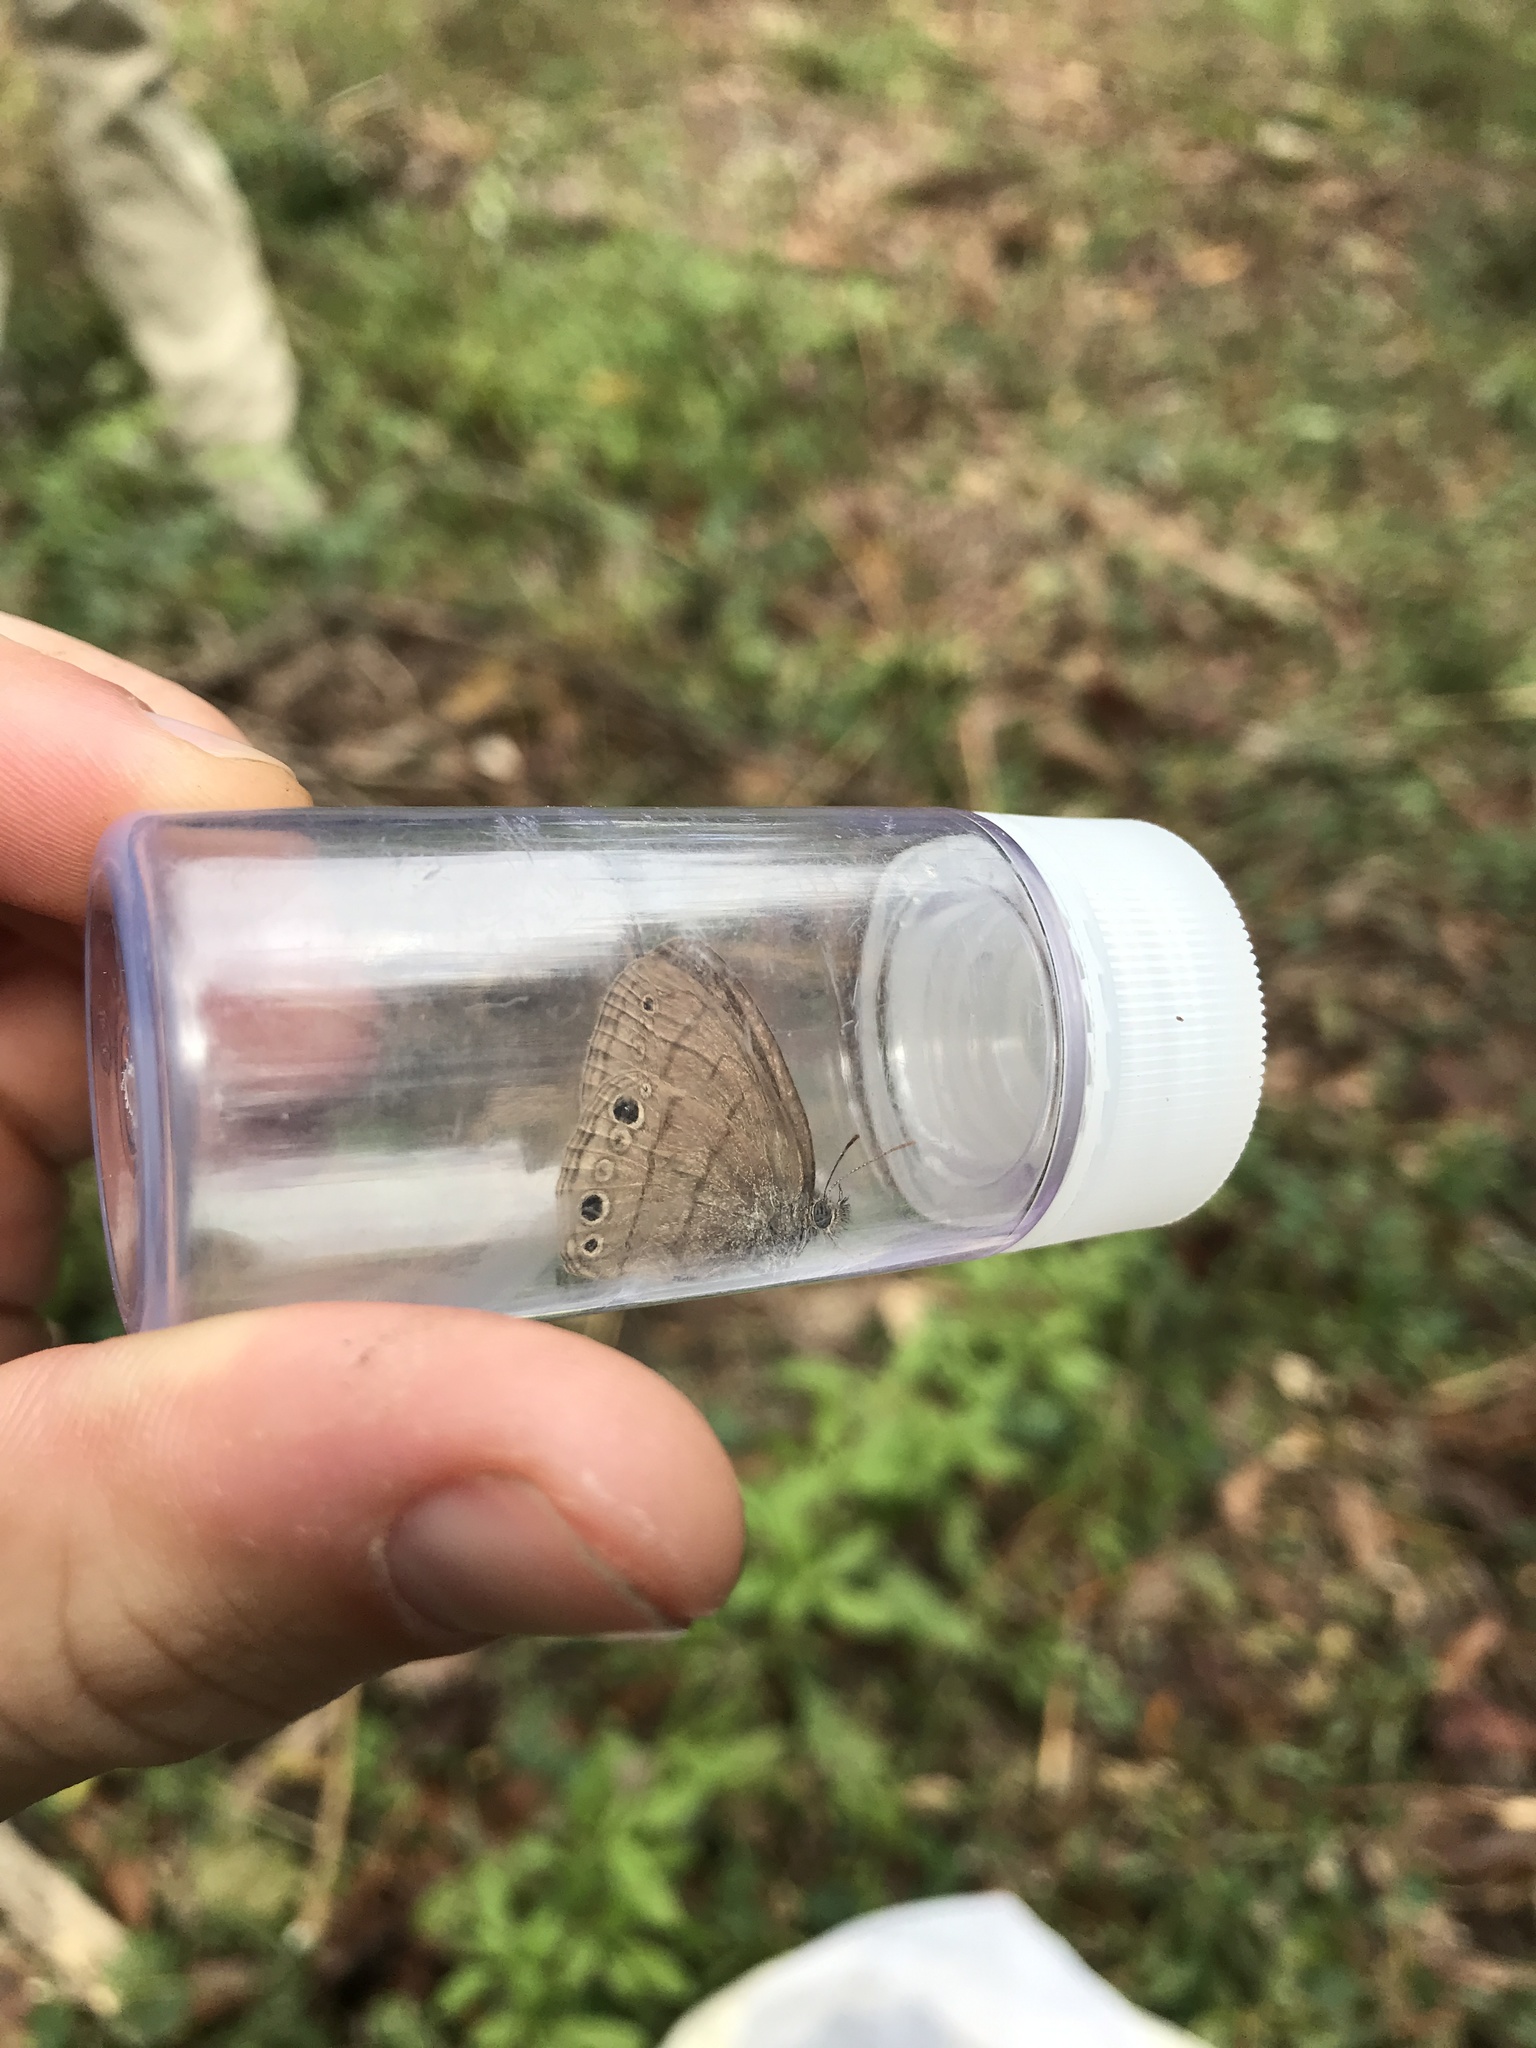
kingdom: Animalia
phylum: Arthropoda
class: Insecta
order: Lepidoptera
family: Nymphalidae
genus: Hermeuptychia
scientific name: Hermeuptychia hermes
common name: Hermes satyr
